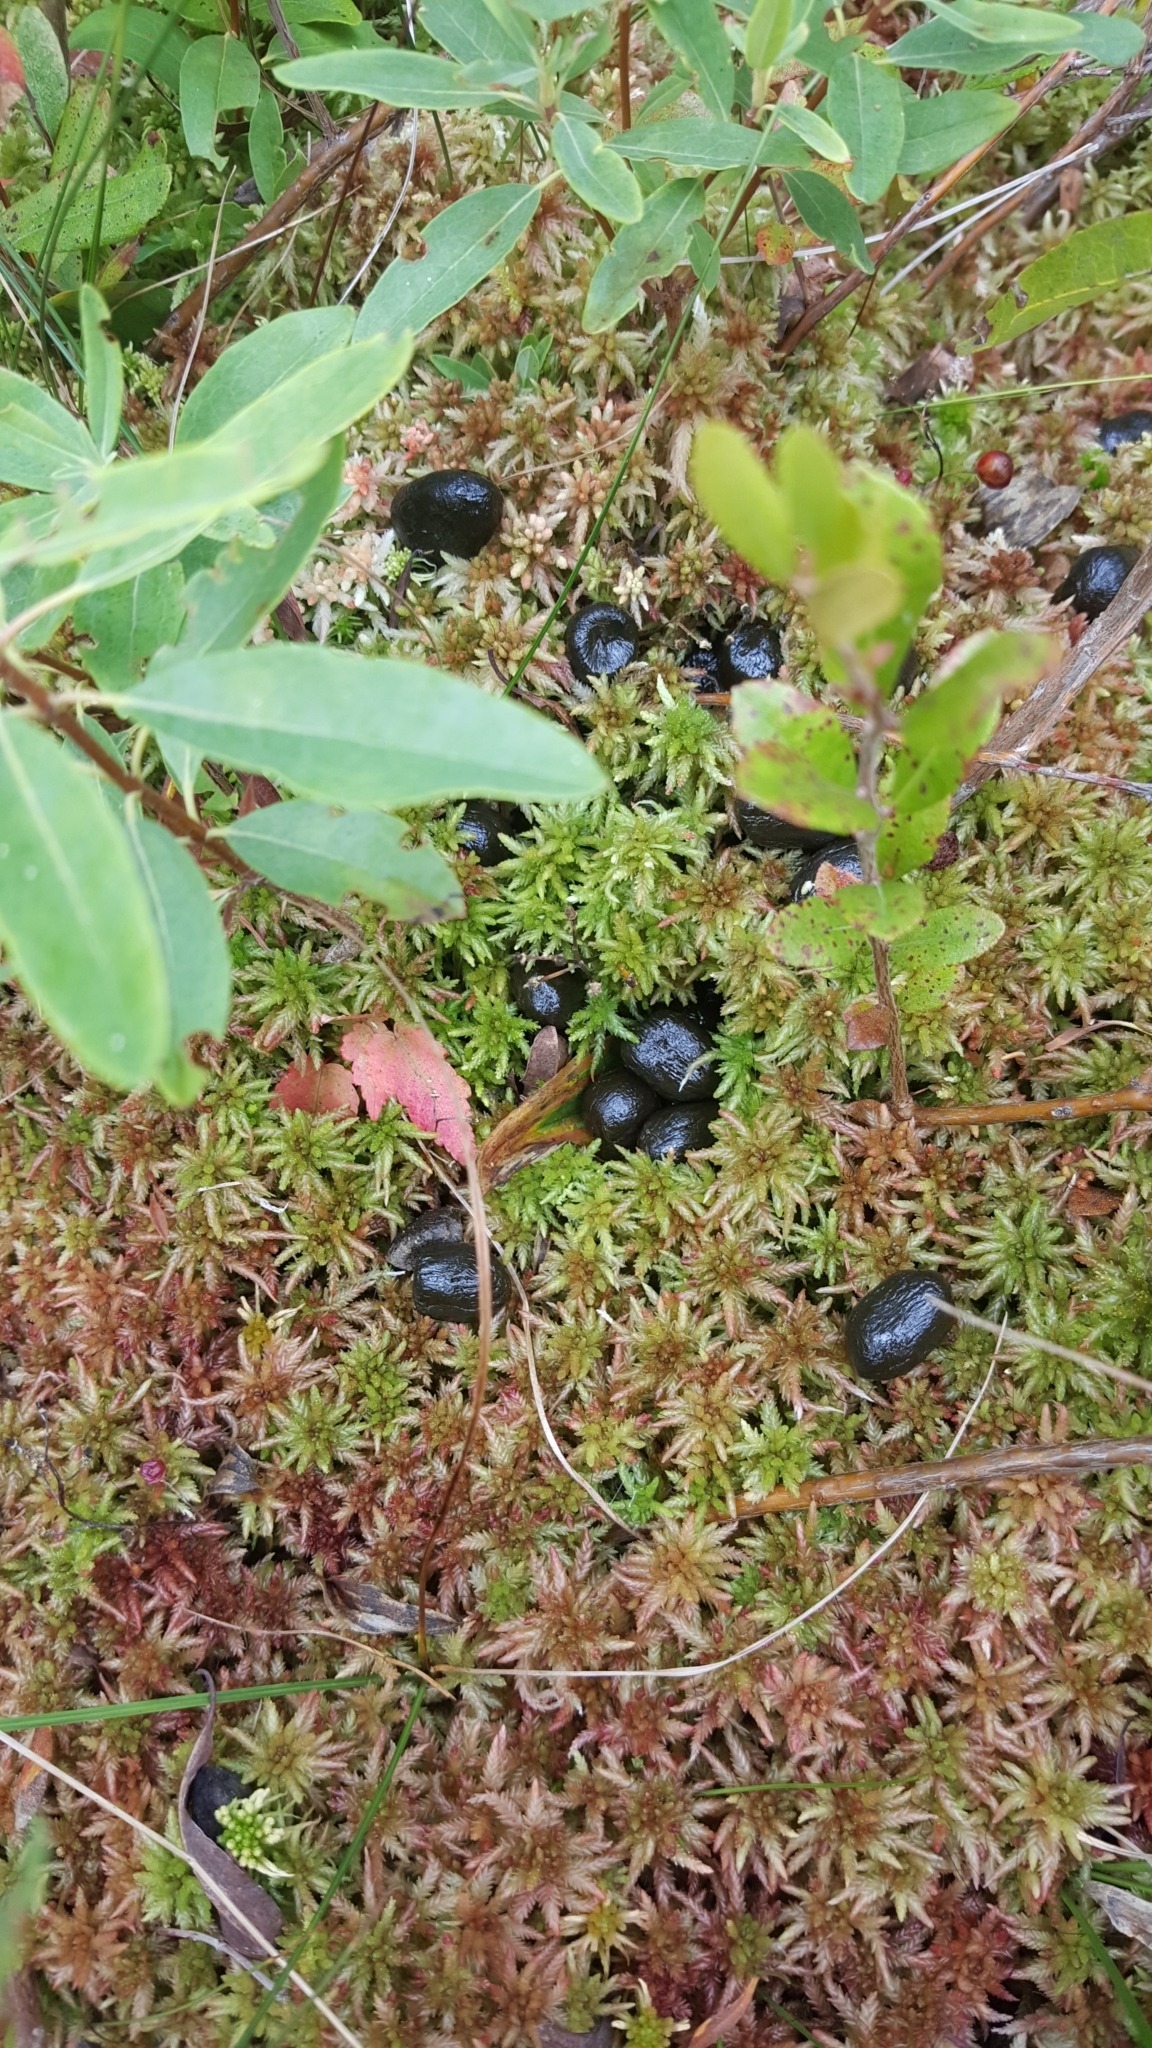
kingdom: Animalia
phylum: Chordata
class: Mammalia
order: Artiodactyla
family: Cervidae
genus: Alces
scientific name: Alces alces
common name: Moose
